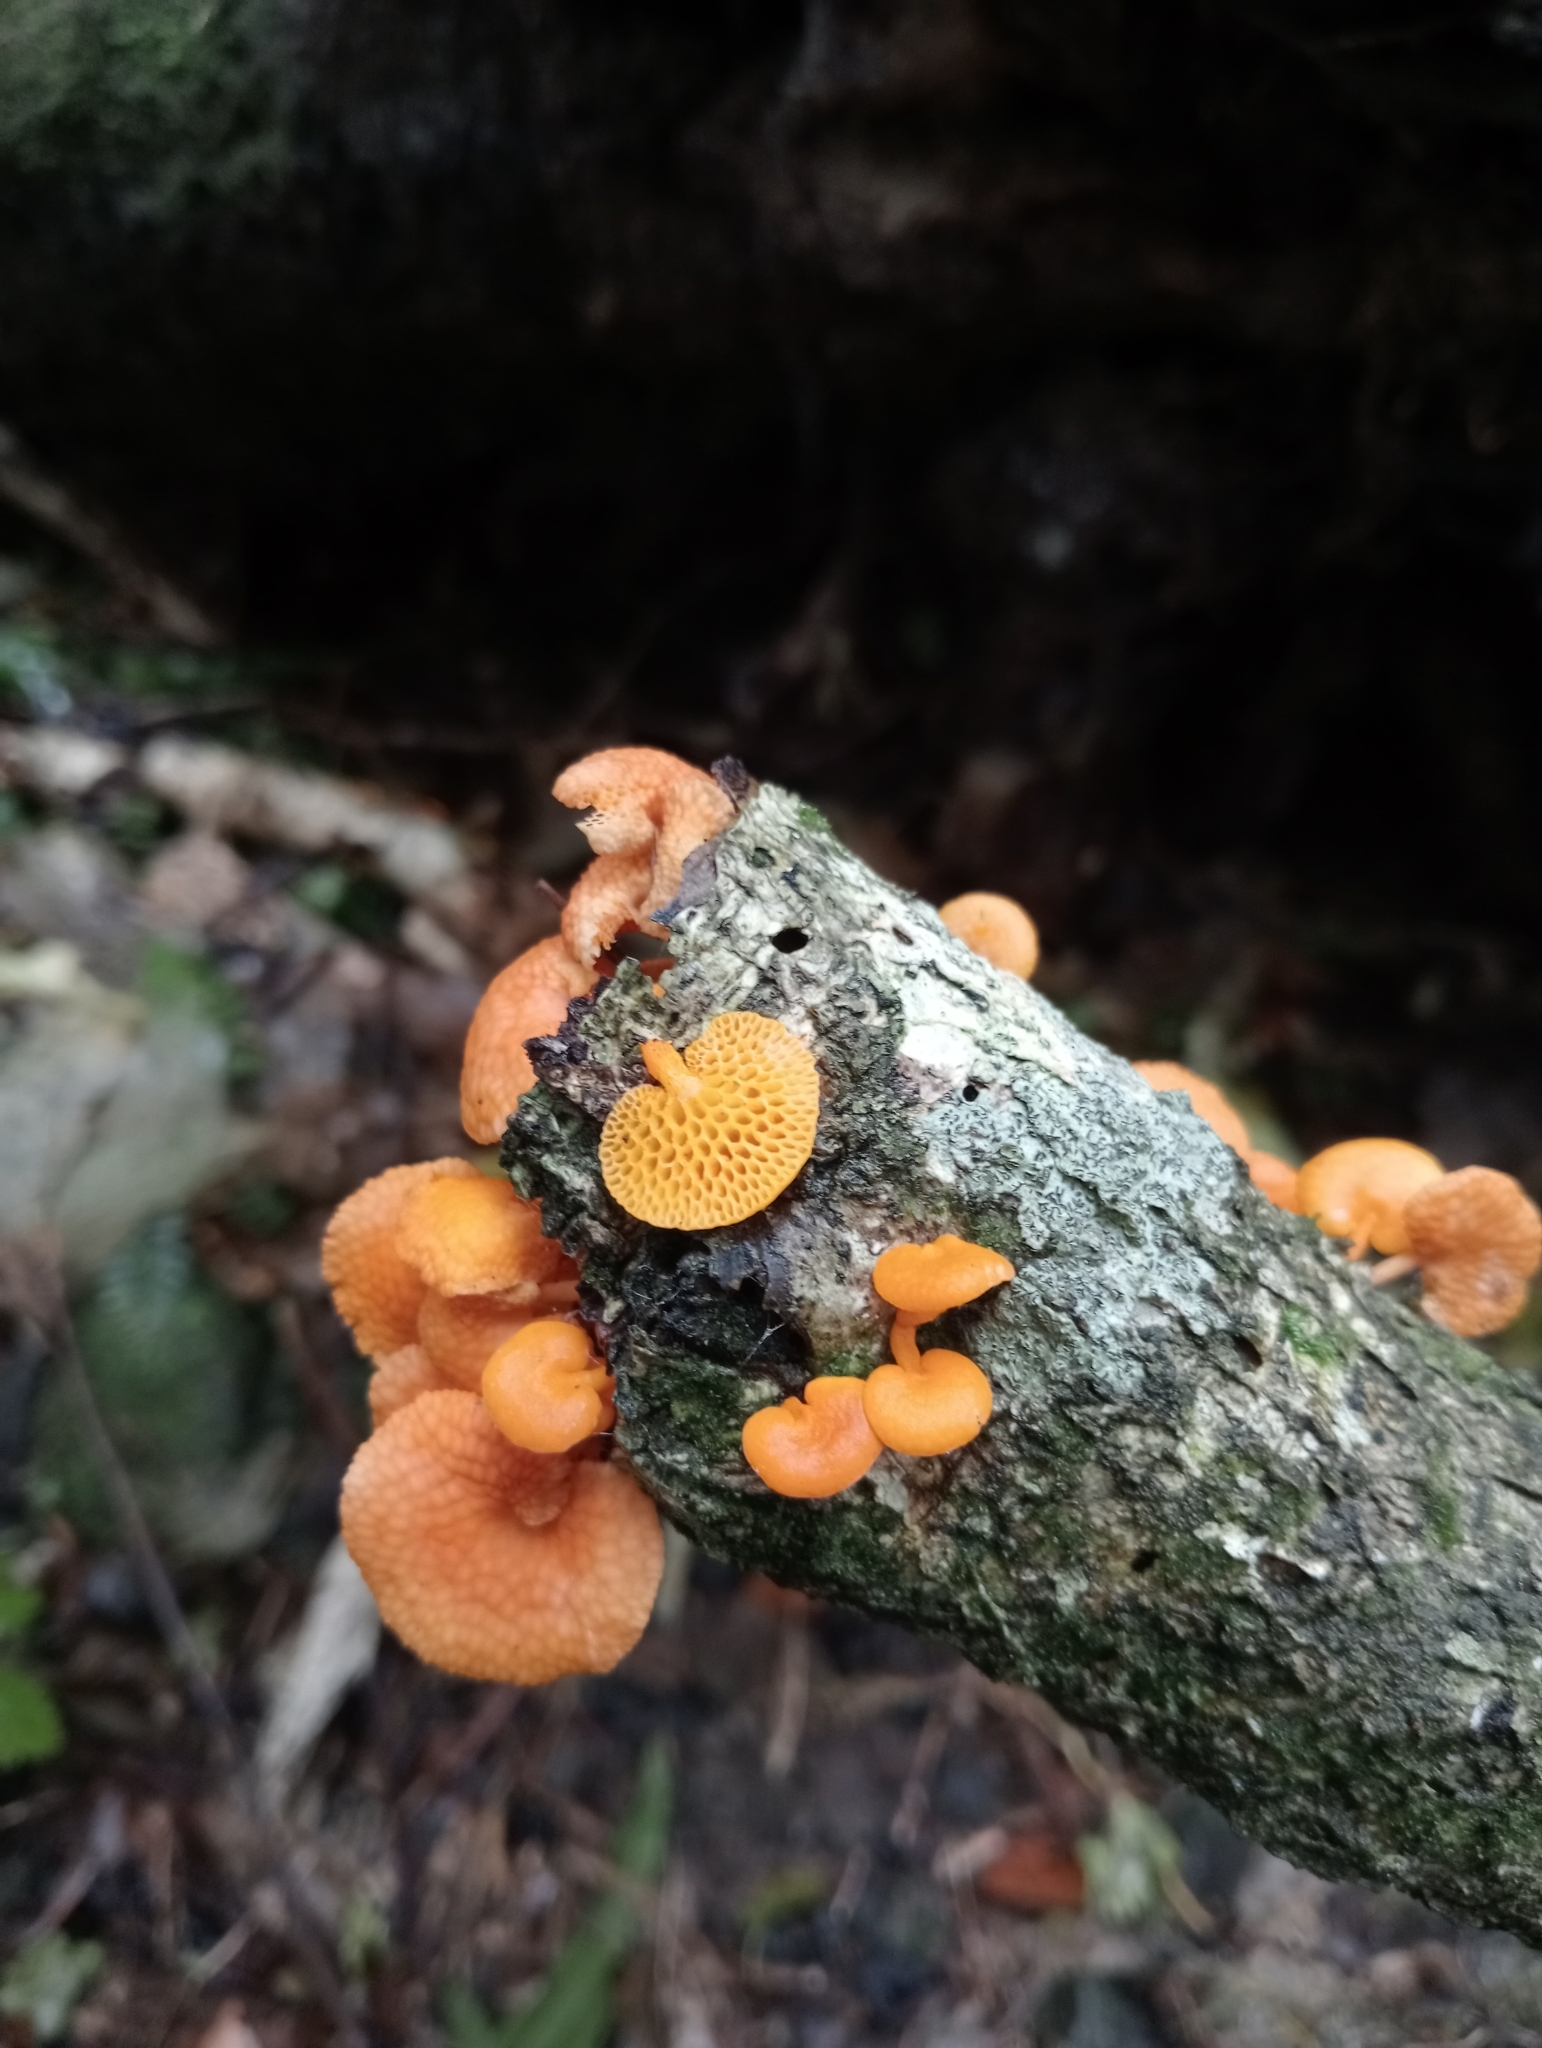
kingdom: Fungi
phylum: Basidiomycota
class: Agaricomycetes
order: Agaricales
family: Mycenaceae
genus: Favolaschia
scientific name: Favolaschia claudopus
